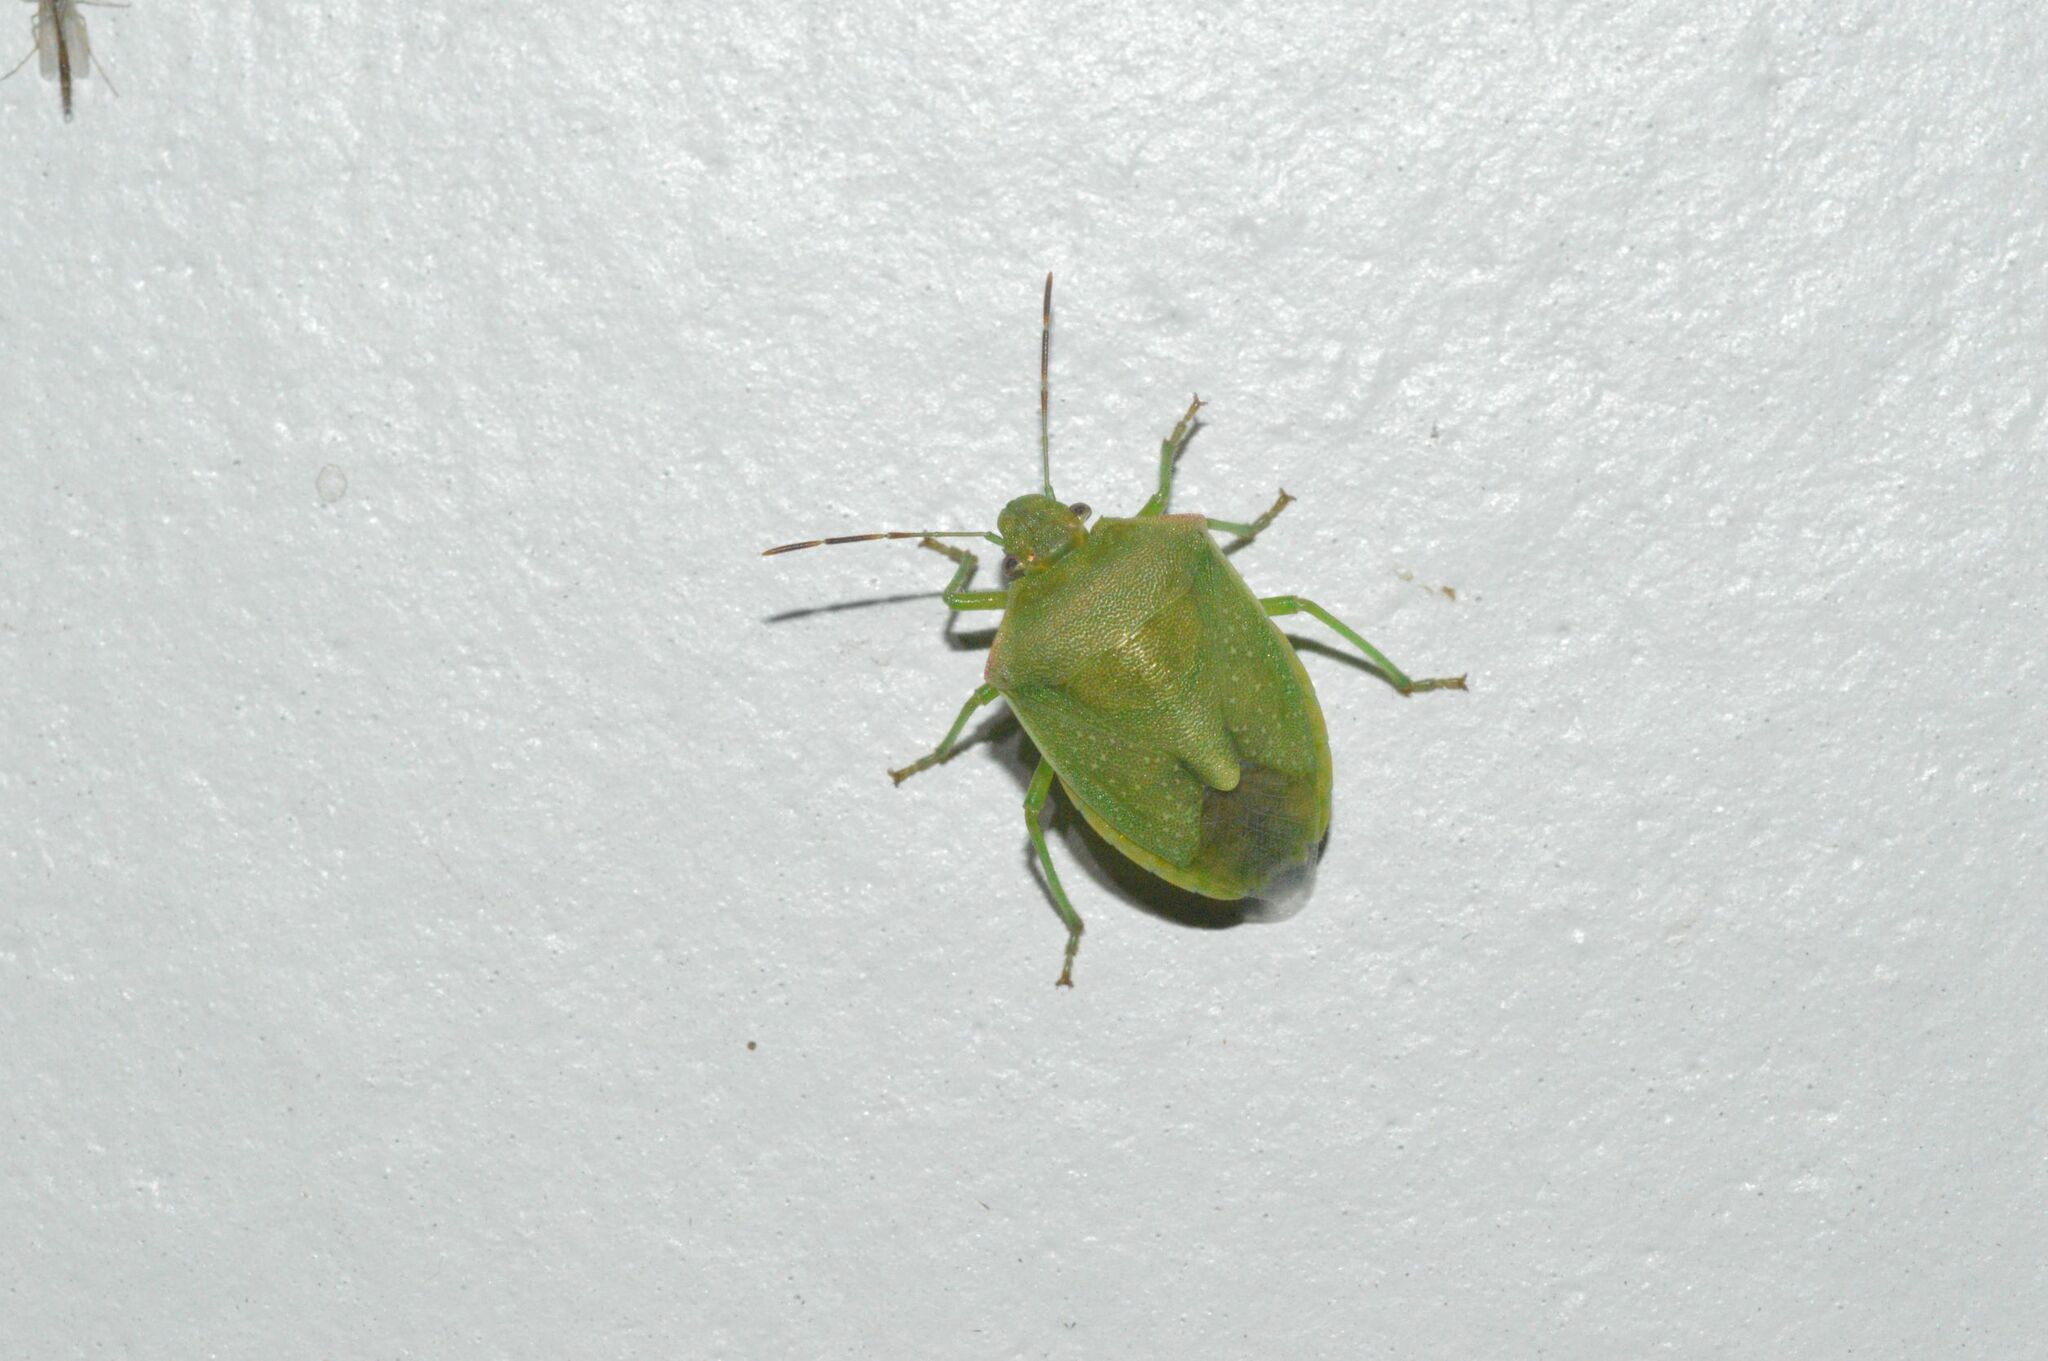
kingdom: Animalia
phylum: Arthropoda
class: Insecta
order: Hemiptera
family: Pentatomidae
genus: Thyanta
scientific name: Thyanta accerra
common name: Stink bug
